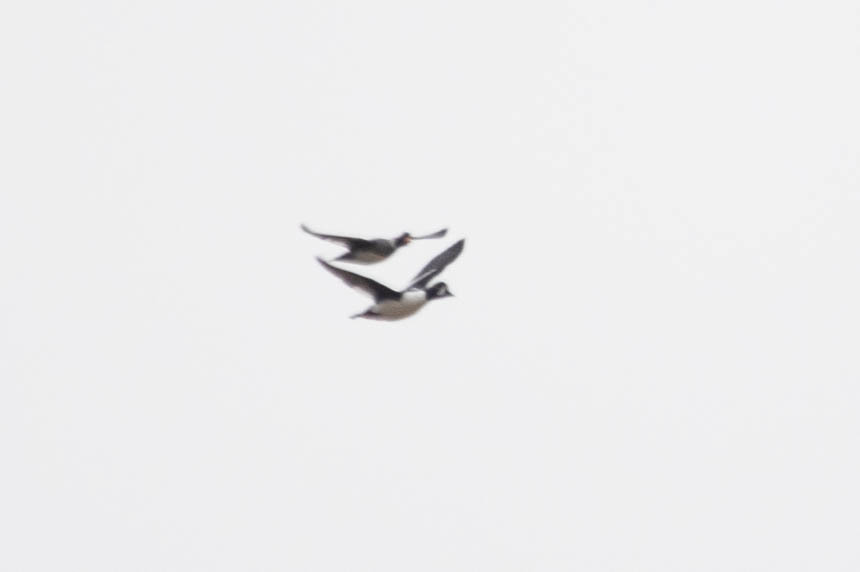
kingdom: Animalia
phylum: Chordata
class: Aves
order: Anseriformes
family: Anatidae
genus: Bucephala
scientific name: Bucephala islandica
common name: Barrow's goldeneye
